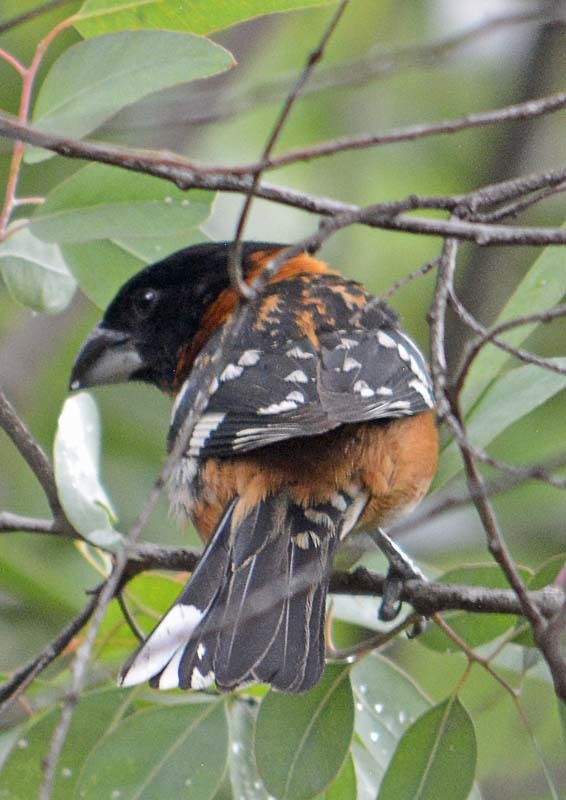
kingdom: Animalia
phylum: Chordata
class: Aves
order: Passeriformes
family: Cardinalidae
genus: Pheucticus
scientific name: Pheucticus melanocephalus
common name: Black-headed grosbeak
